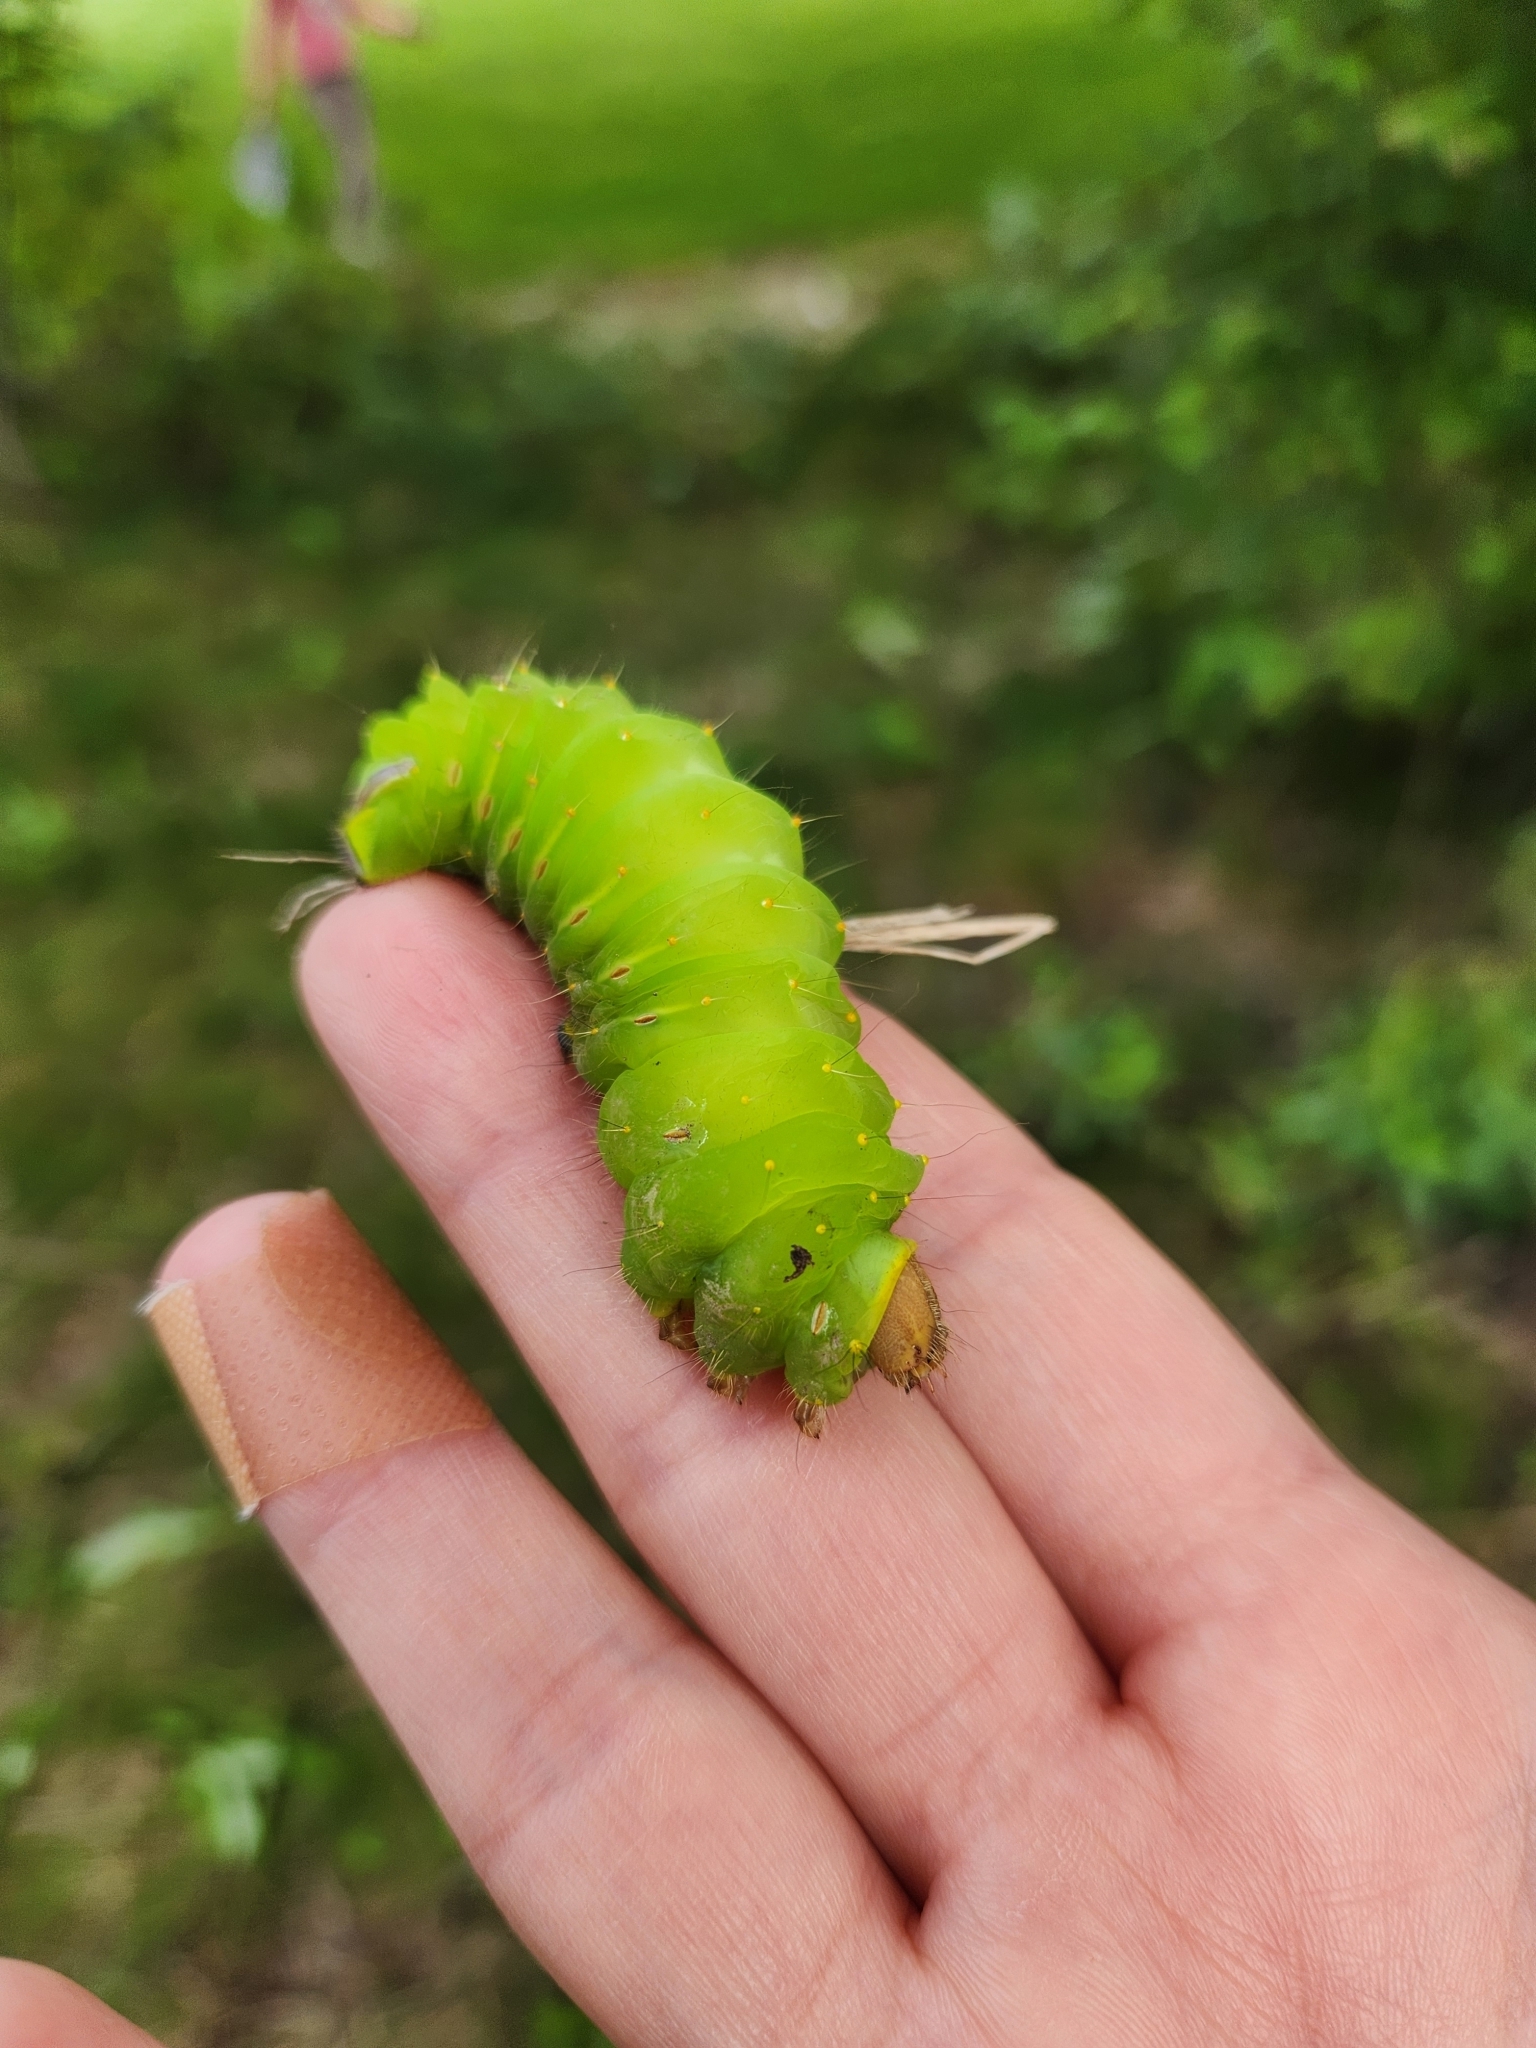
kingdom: Animalia
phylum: Arthropoda
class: Insecta
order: Lepidoptera
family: Saturniidae
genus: Antheraea
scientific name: Antheraea polyphemus
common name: Polyphemus moth
